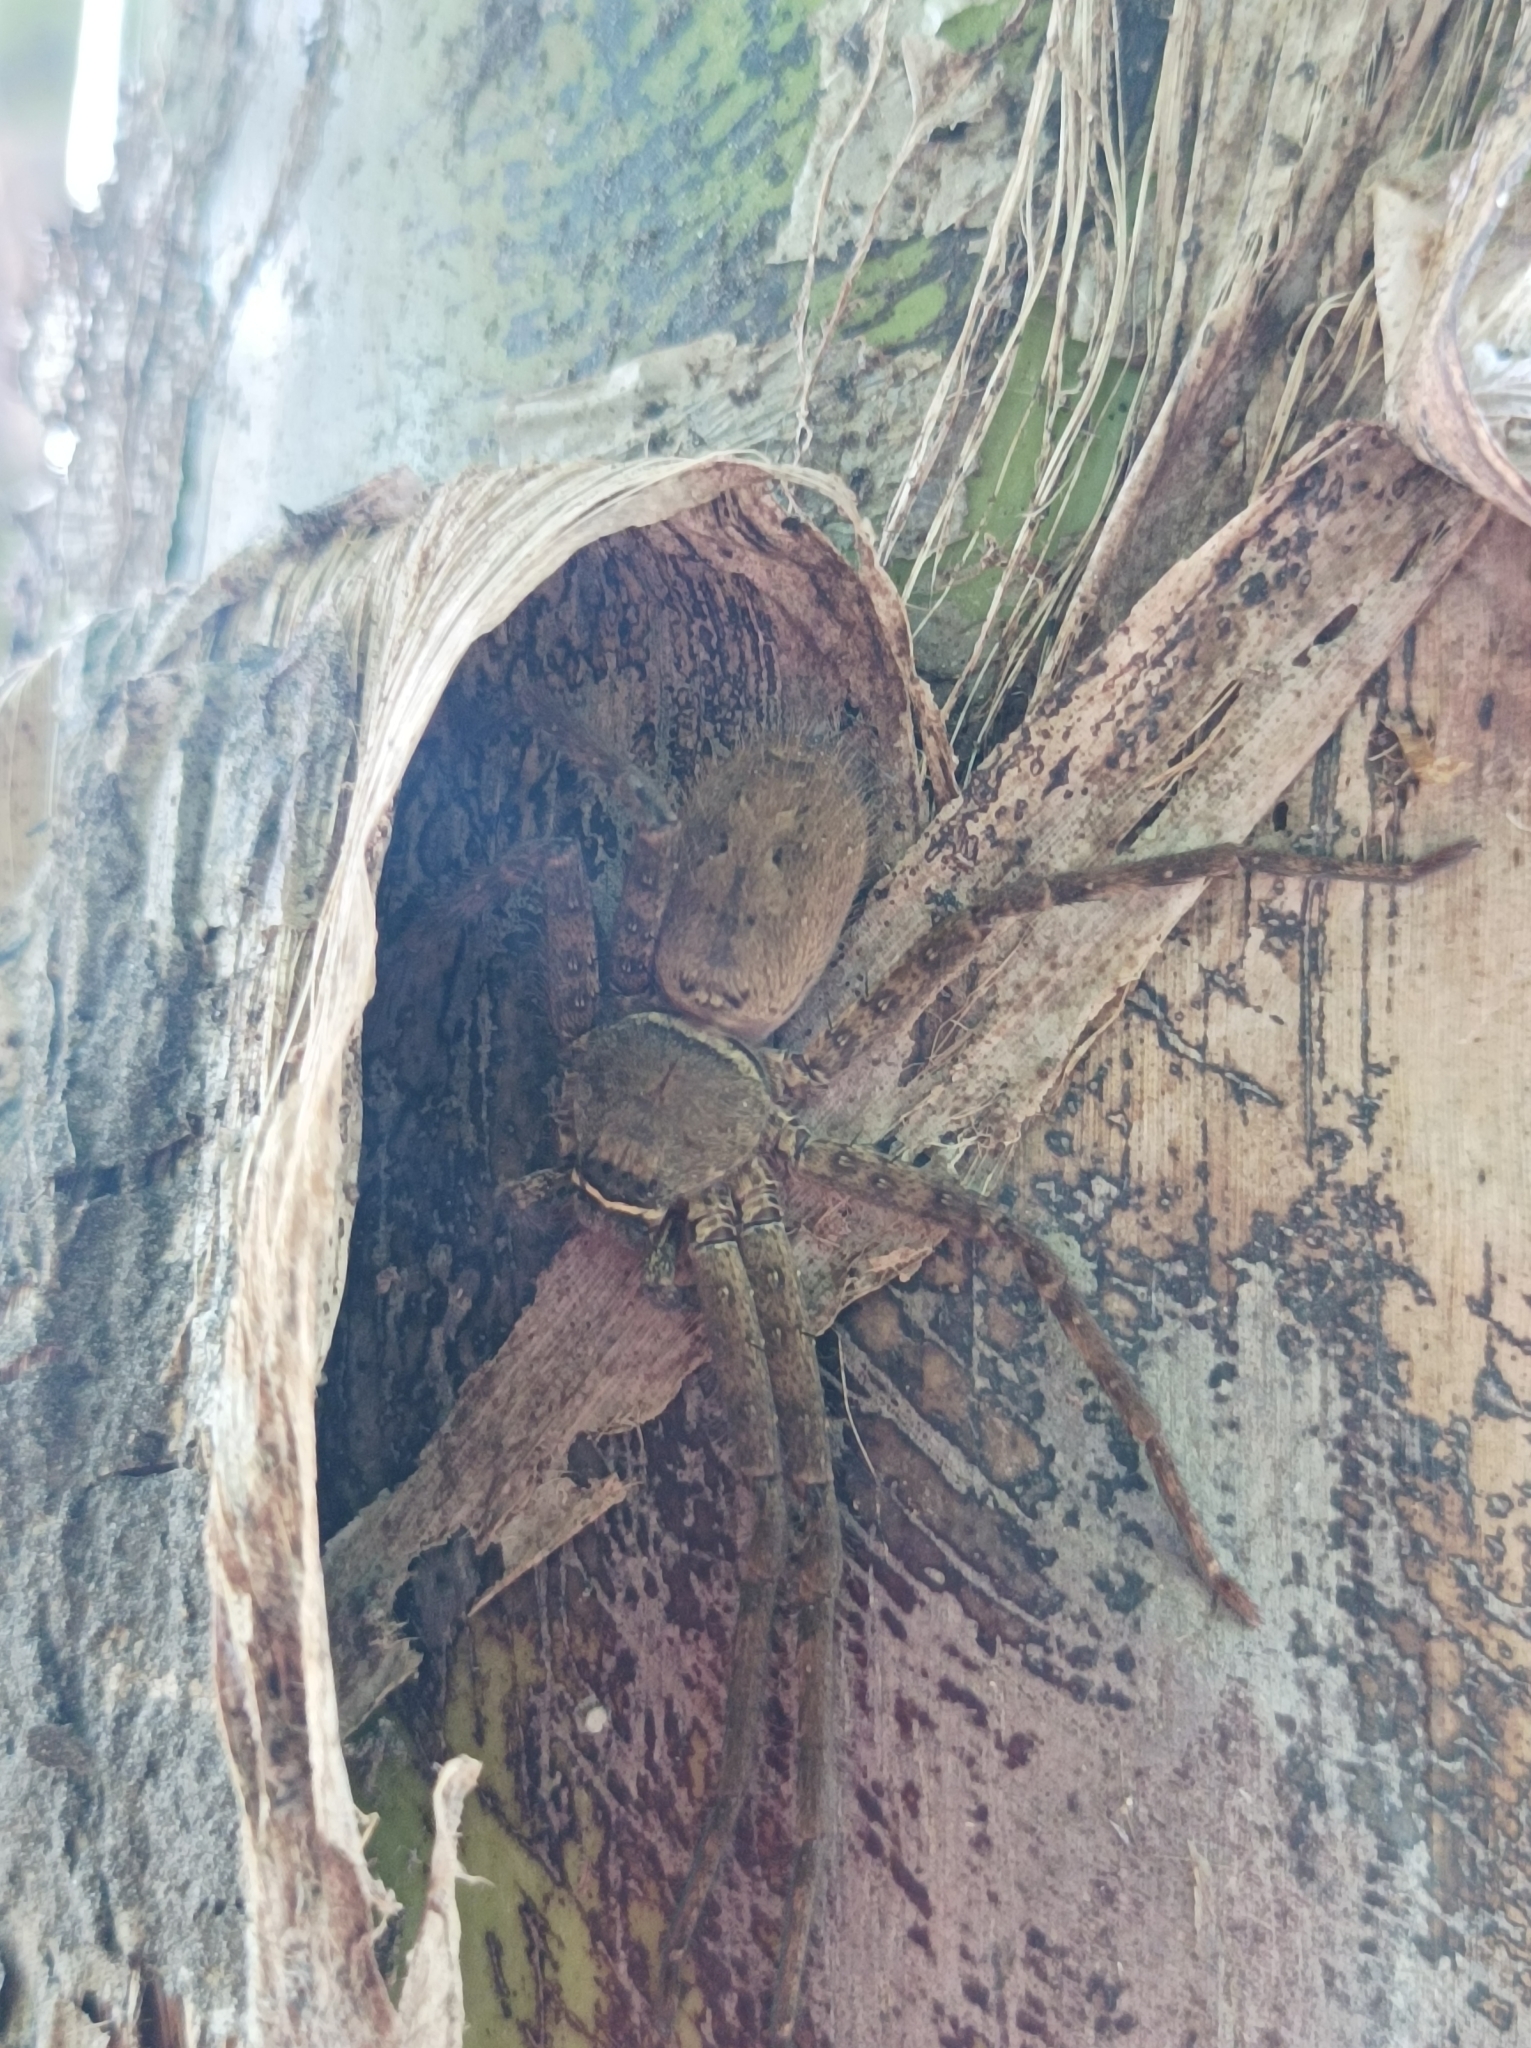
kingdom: Animalia
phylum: Arthropoda
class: Arachnida
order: Araneae
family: Sparassidae
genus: Heteropoda
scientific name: Heteropoda venatoria
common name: Huntsman spider
